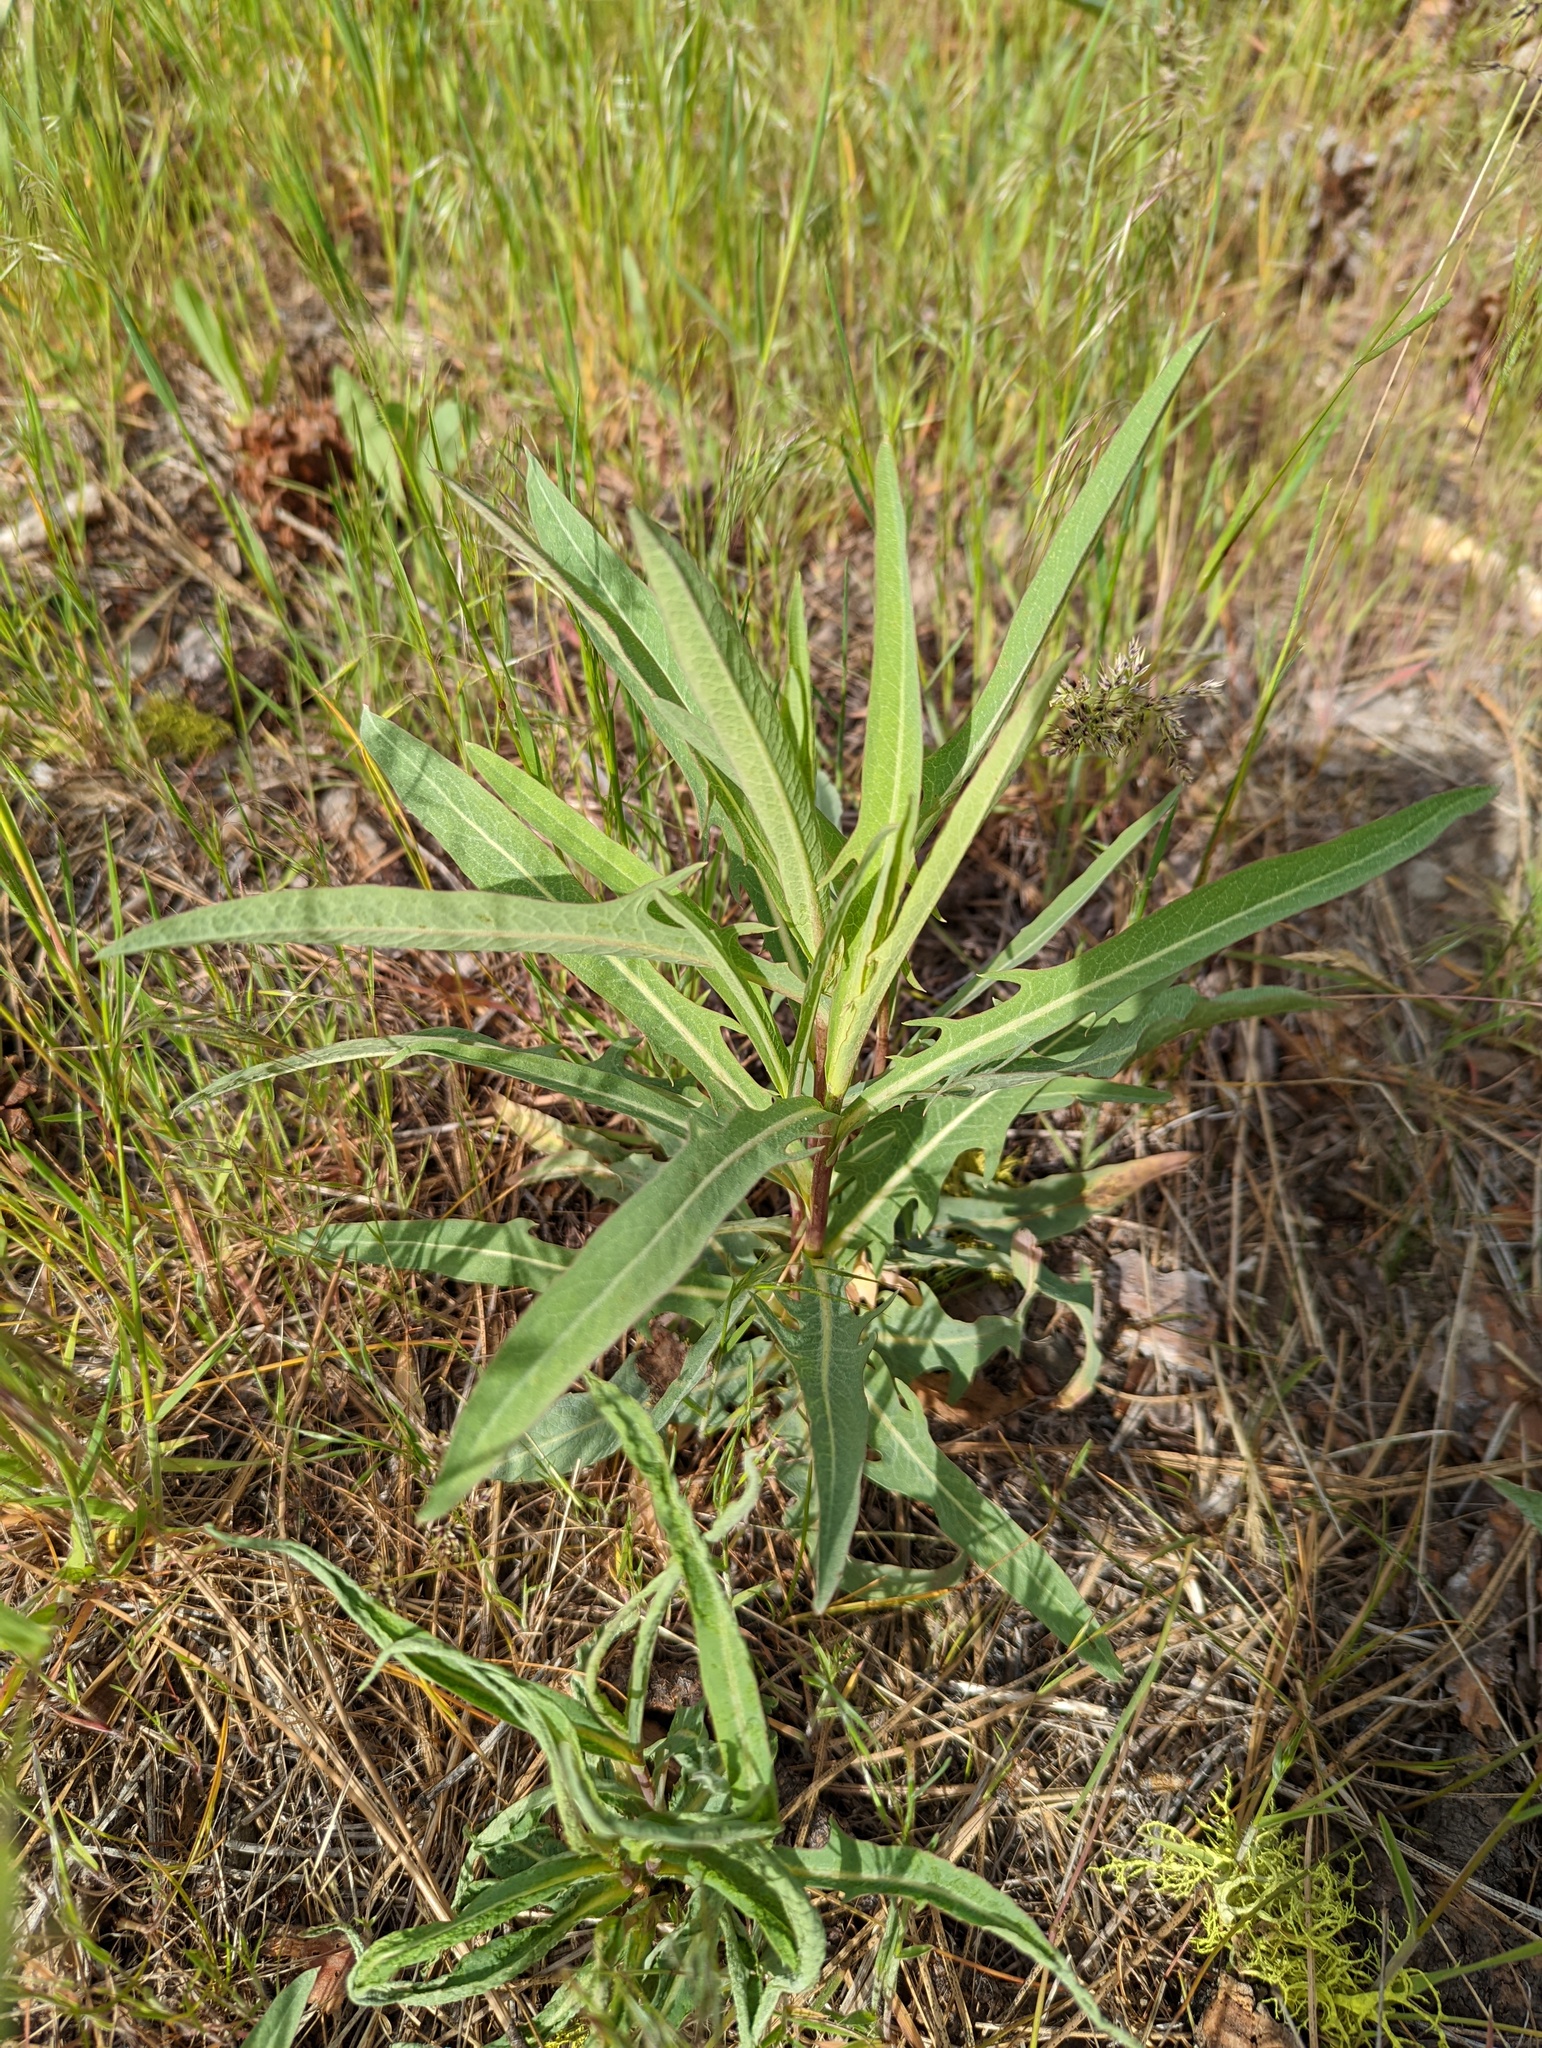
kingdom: Plantae
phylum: Tracheophyta
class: Magnoliopsida
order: Myrtales
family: Onagraceae
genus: Chamaenerion
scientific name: Chamaenerion angustifolium
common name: Fireweed
